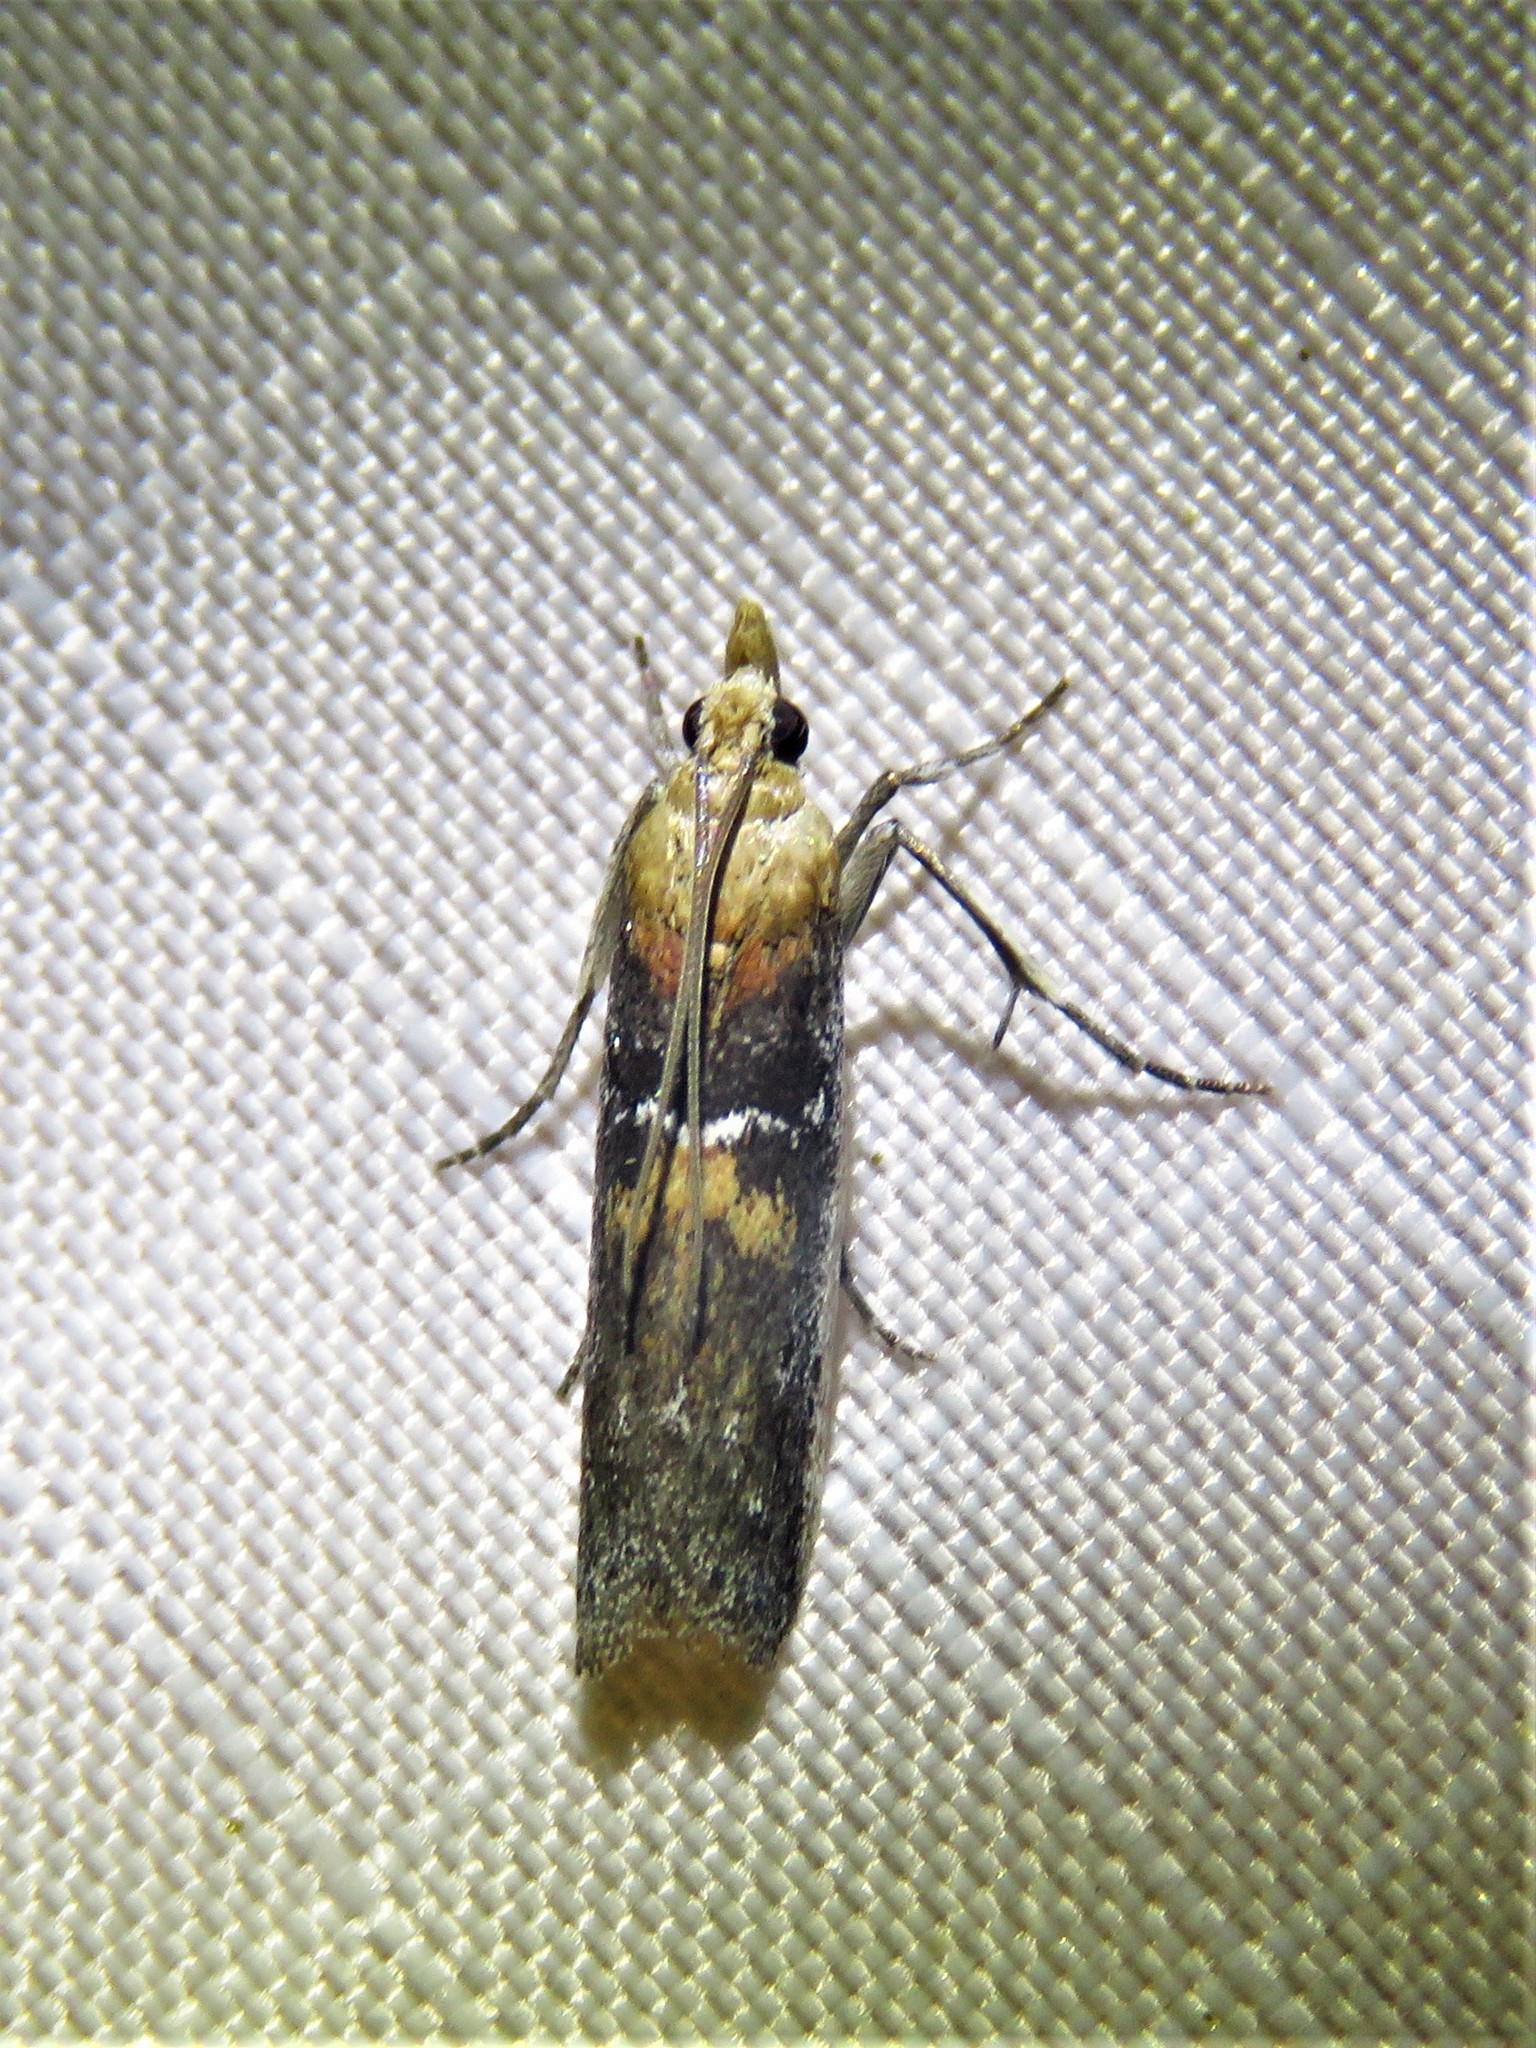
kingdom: Animalia
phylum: Arthropoda
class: Insecta
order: Lepidoptera
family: Pyralidae
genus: Honora
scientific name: Honora mellinella
